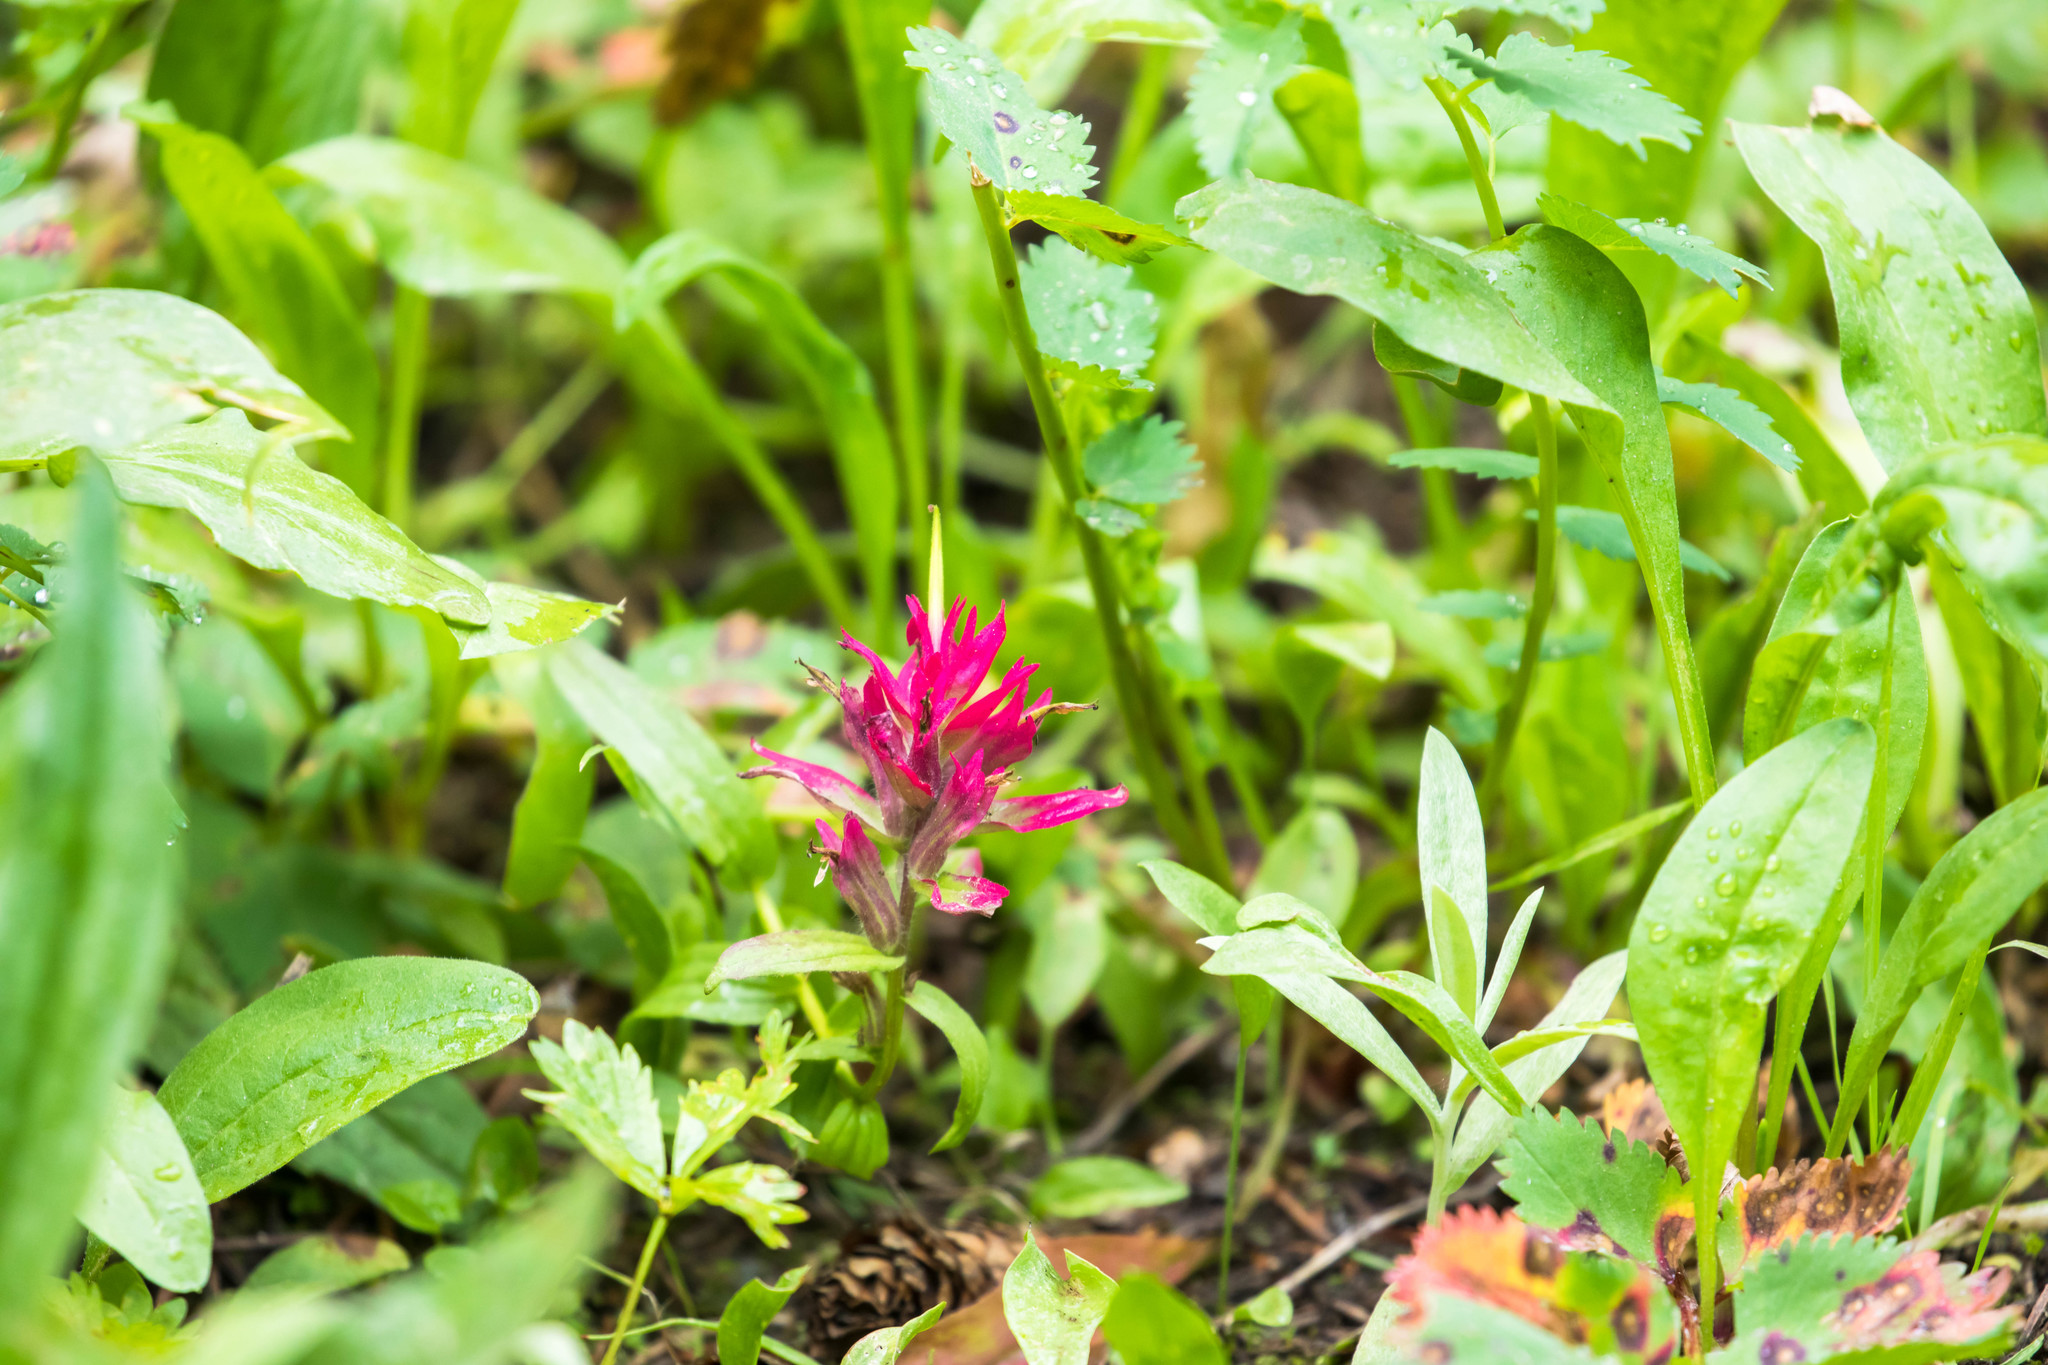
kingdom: Plantae
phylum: Tracheophyta
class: Magnoliopsida
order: Lamiales
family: Orobanchaceae
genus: Castilleja
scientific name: Castilleja rhexifolia
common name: Rocky mountain paintbrush
